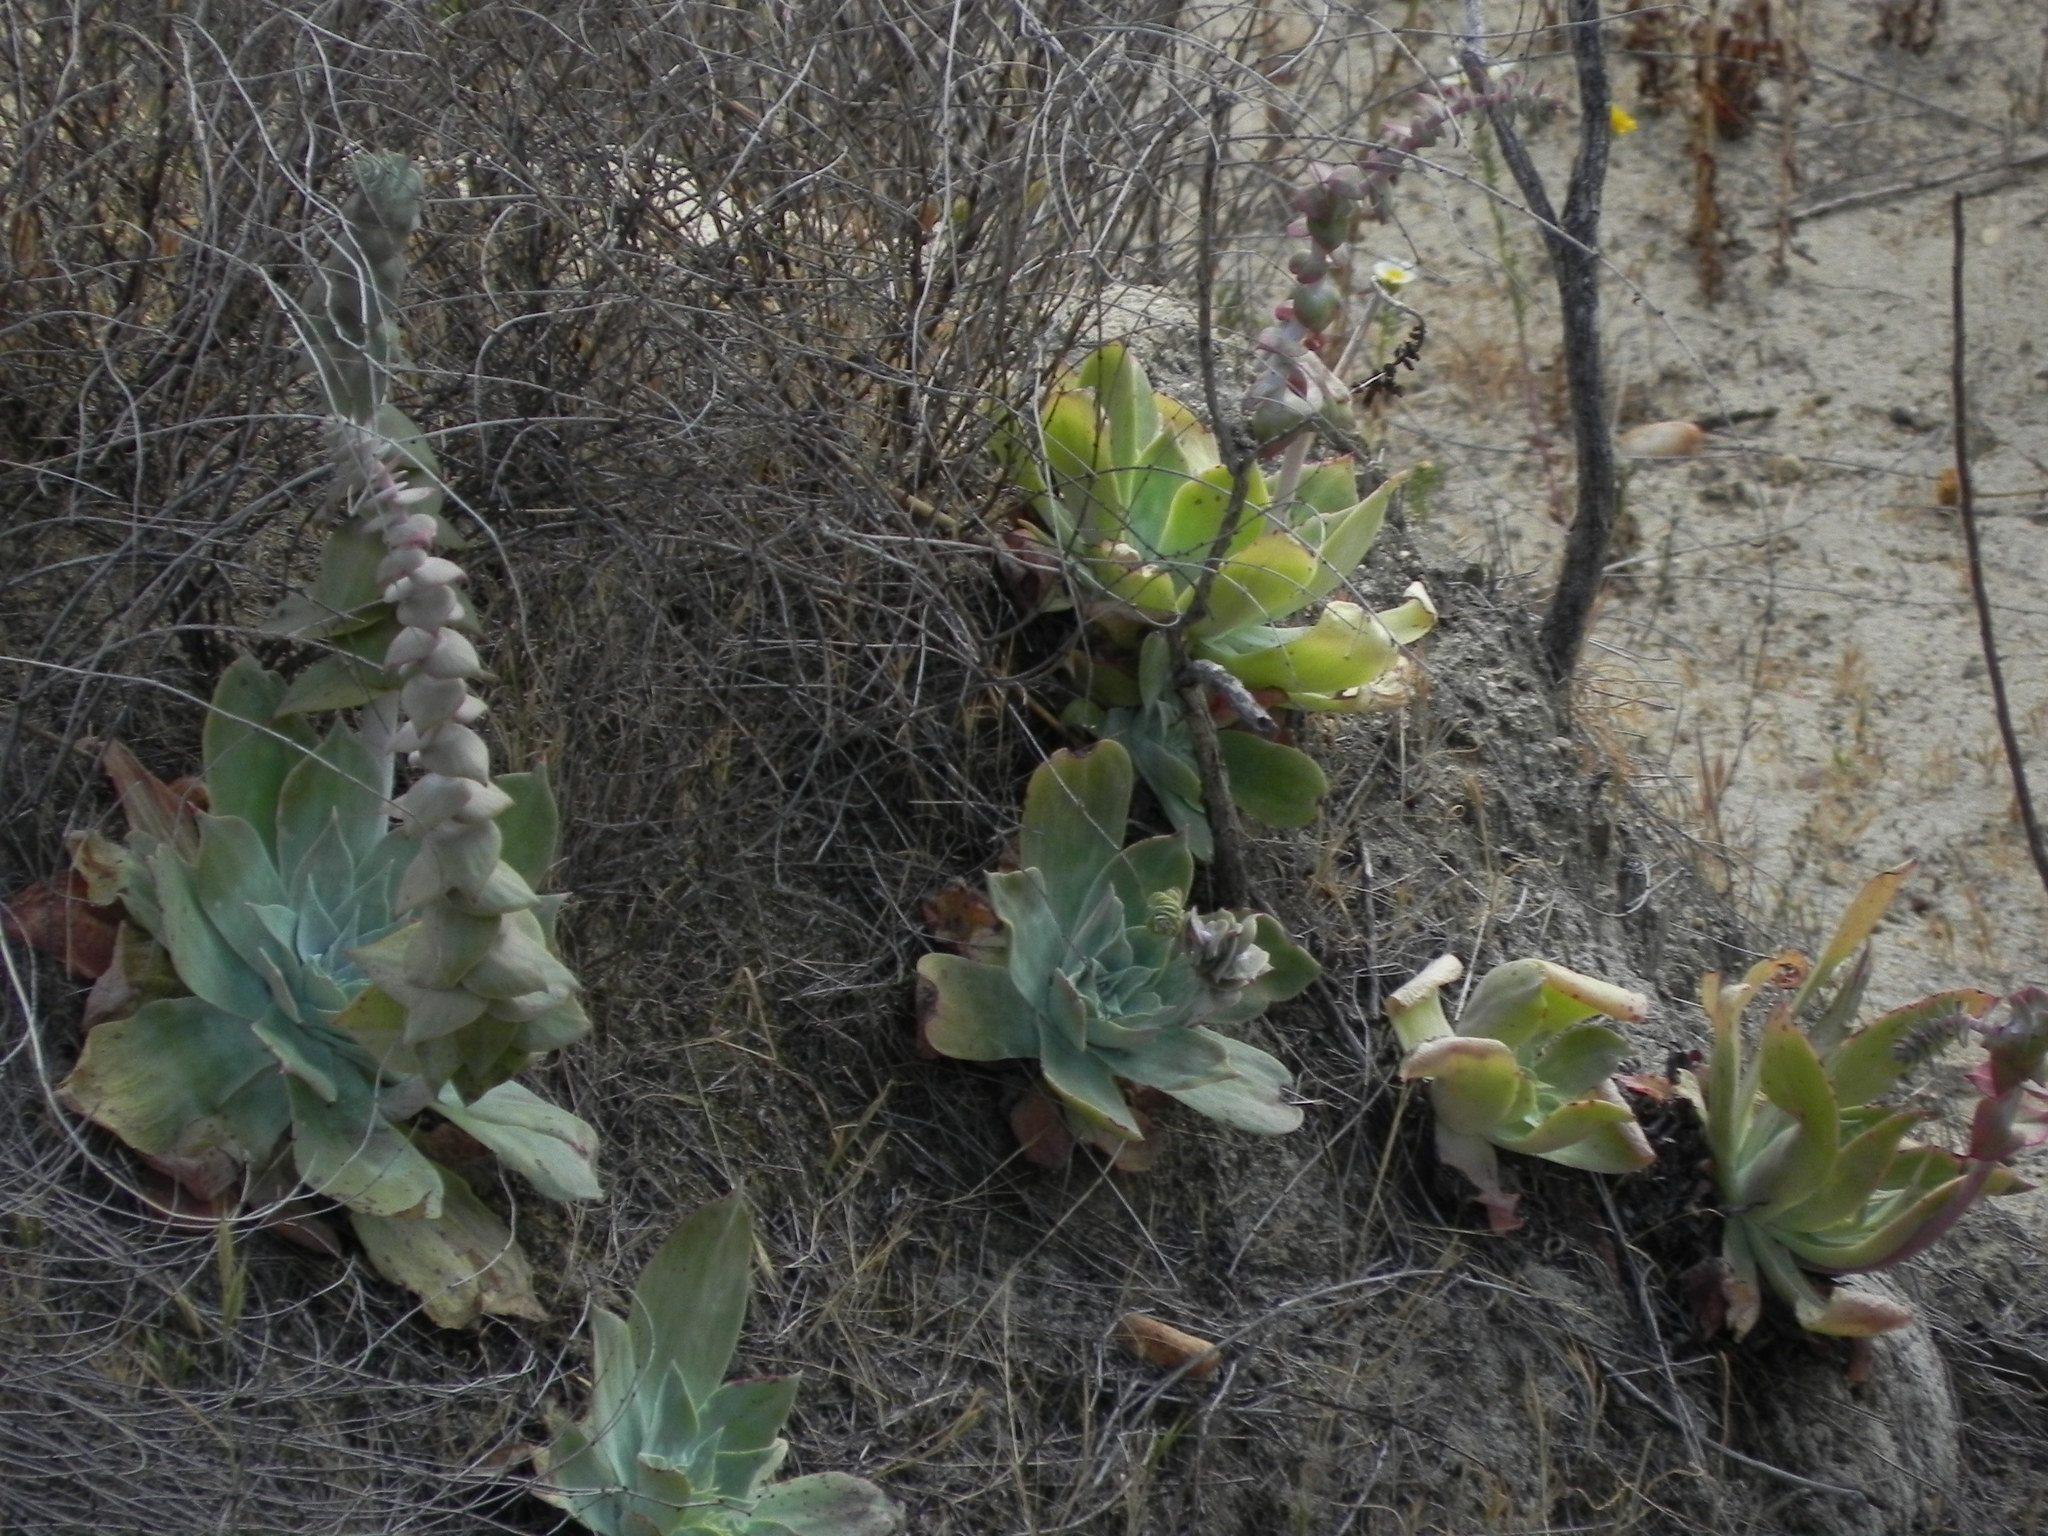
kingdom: Plantae
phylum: Tracheophyta
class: Magnoliopsida
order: Saxifragales
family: Crassulaceae
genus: Dudleya
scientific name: Dudleya pulverulenta
